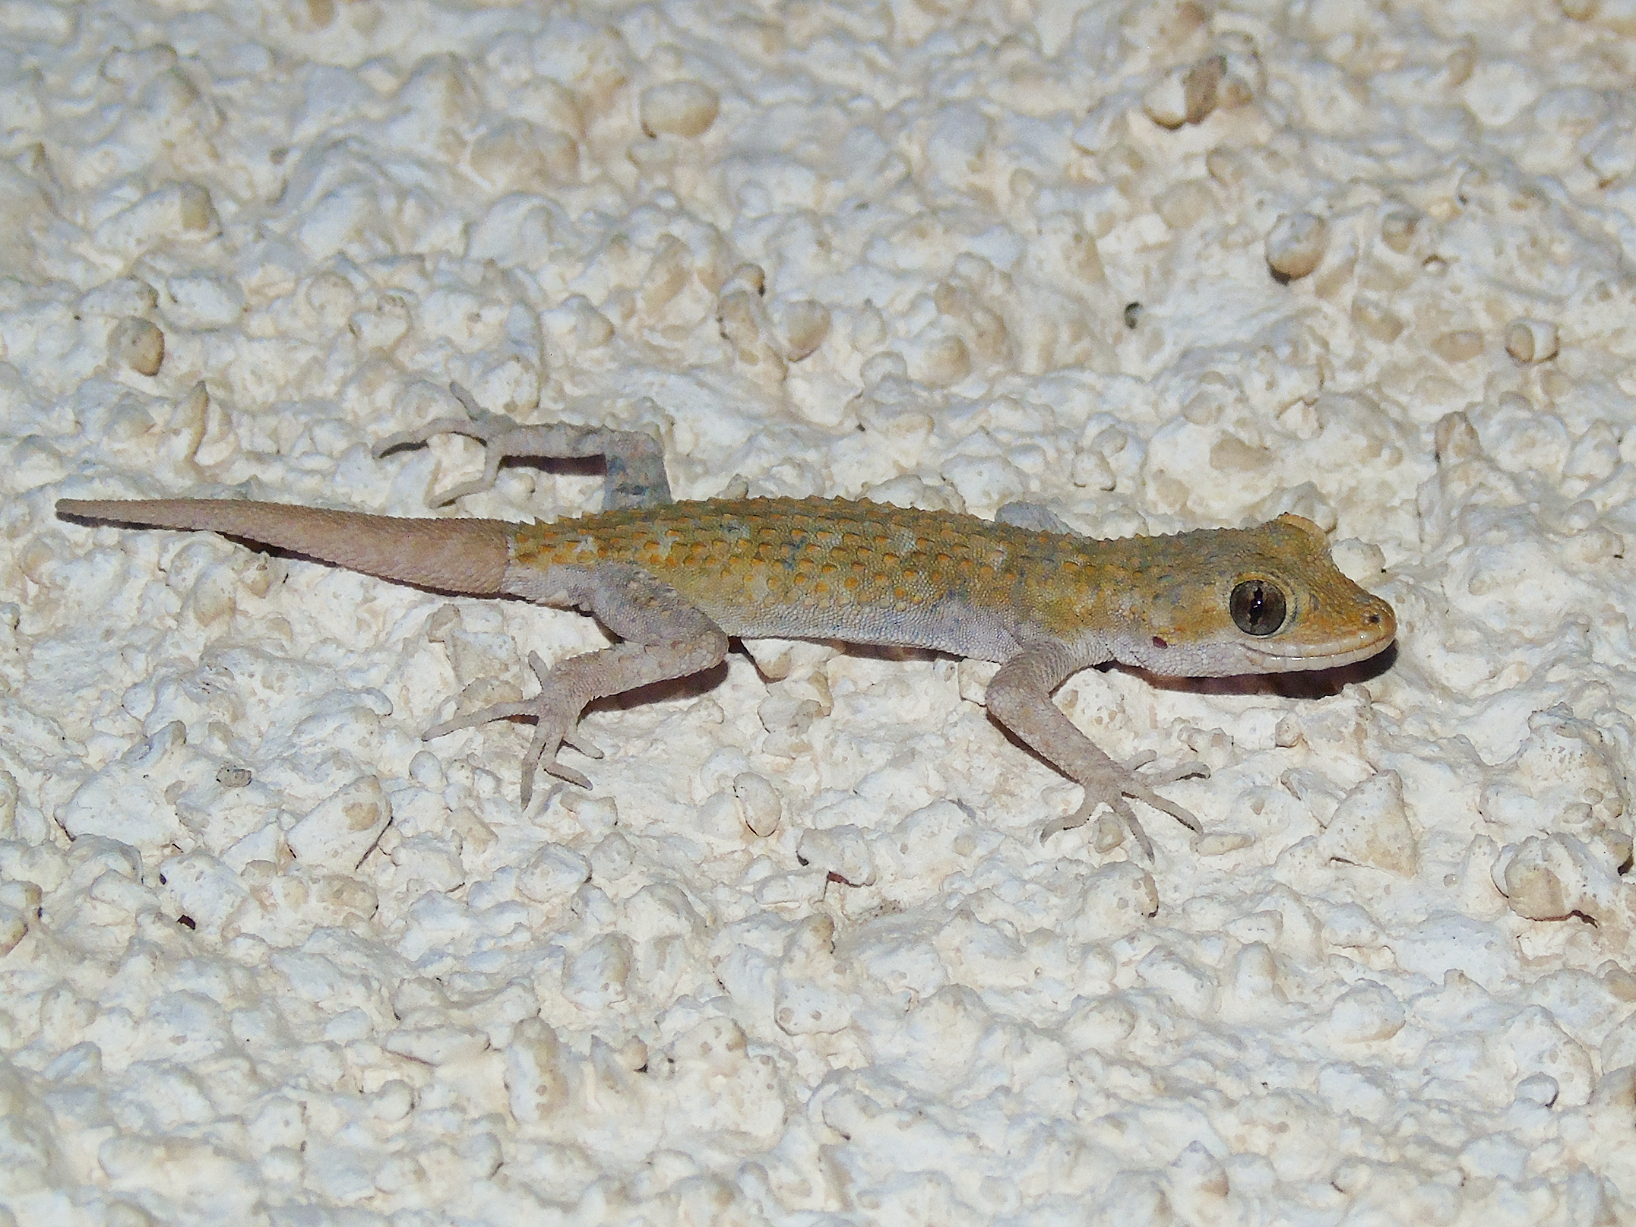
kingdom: Animalia
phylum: Chordata
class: Squamata
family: Gekkonidae
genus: Mediodactylus
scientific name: Mediodactylus kotschyi
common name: Kotschy's gecko
